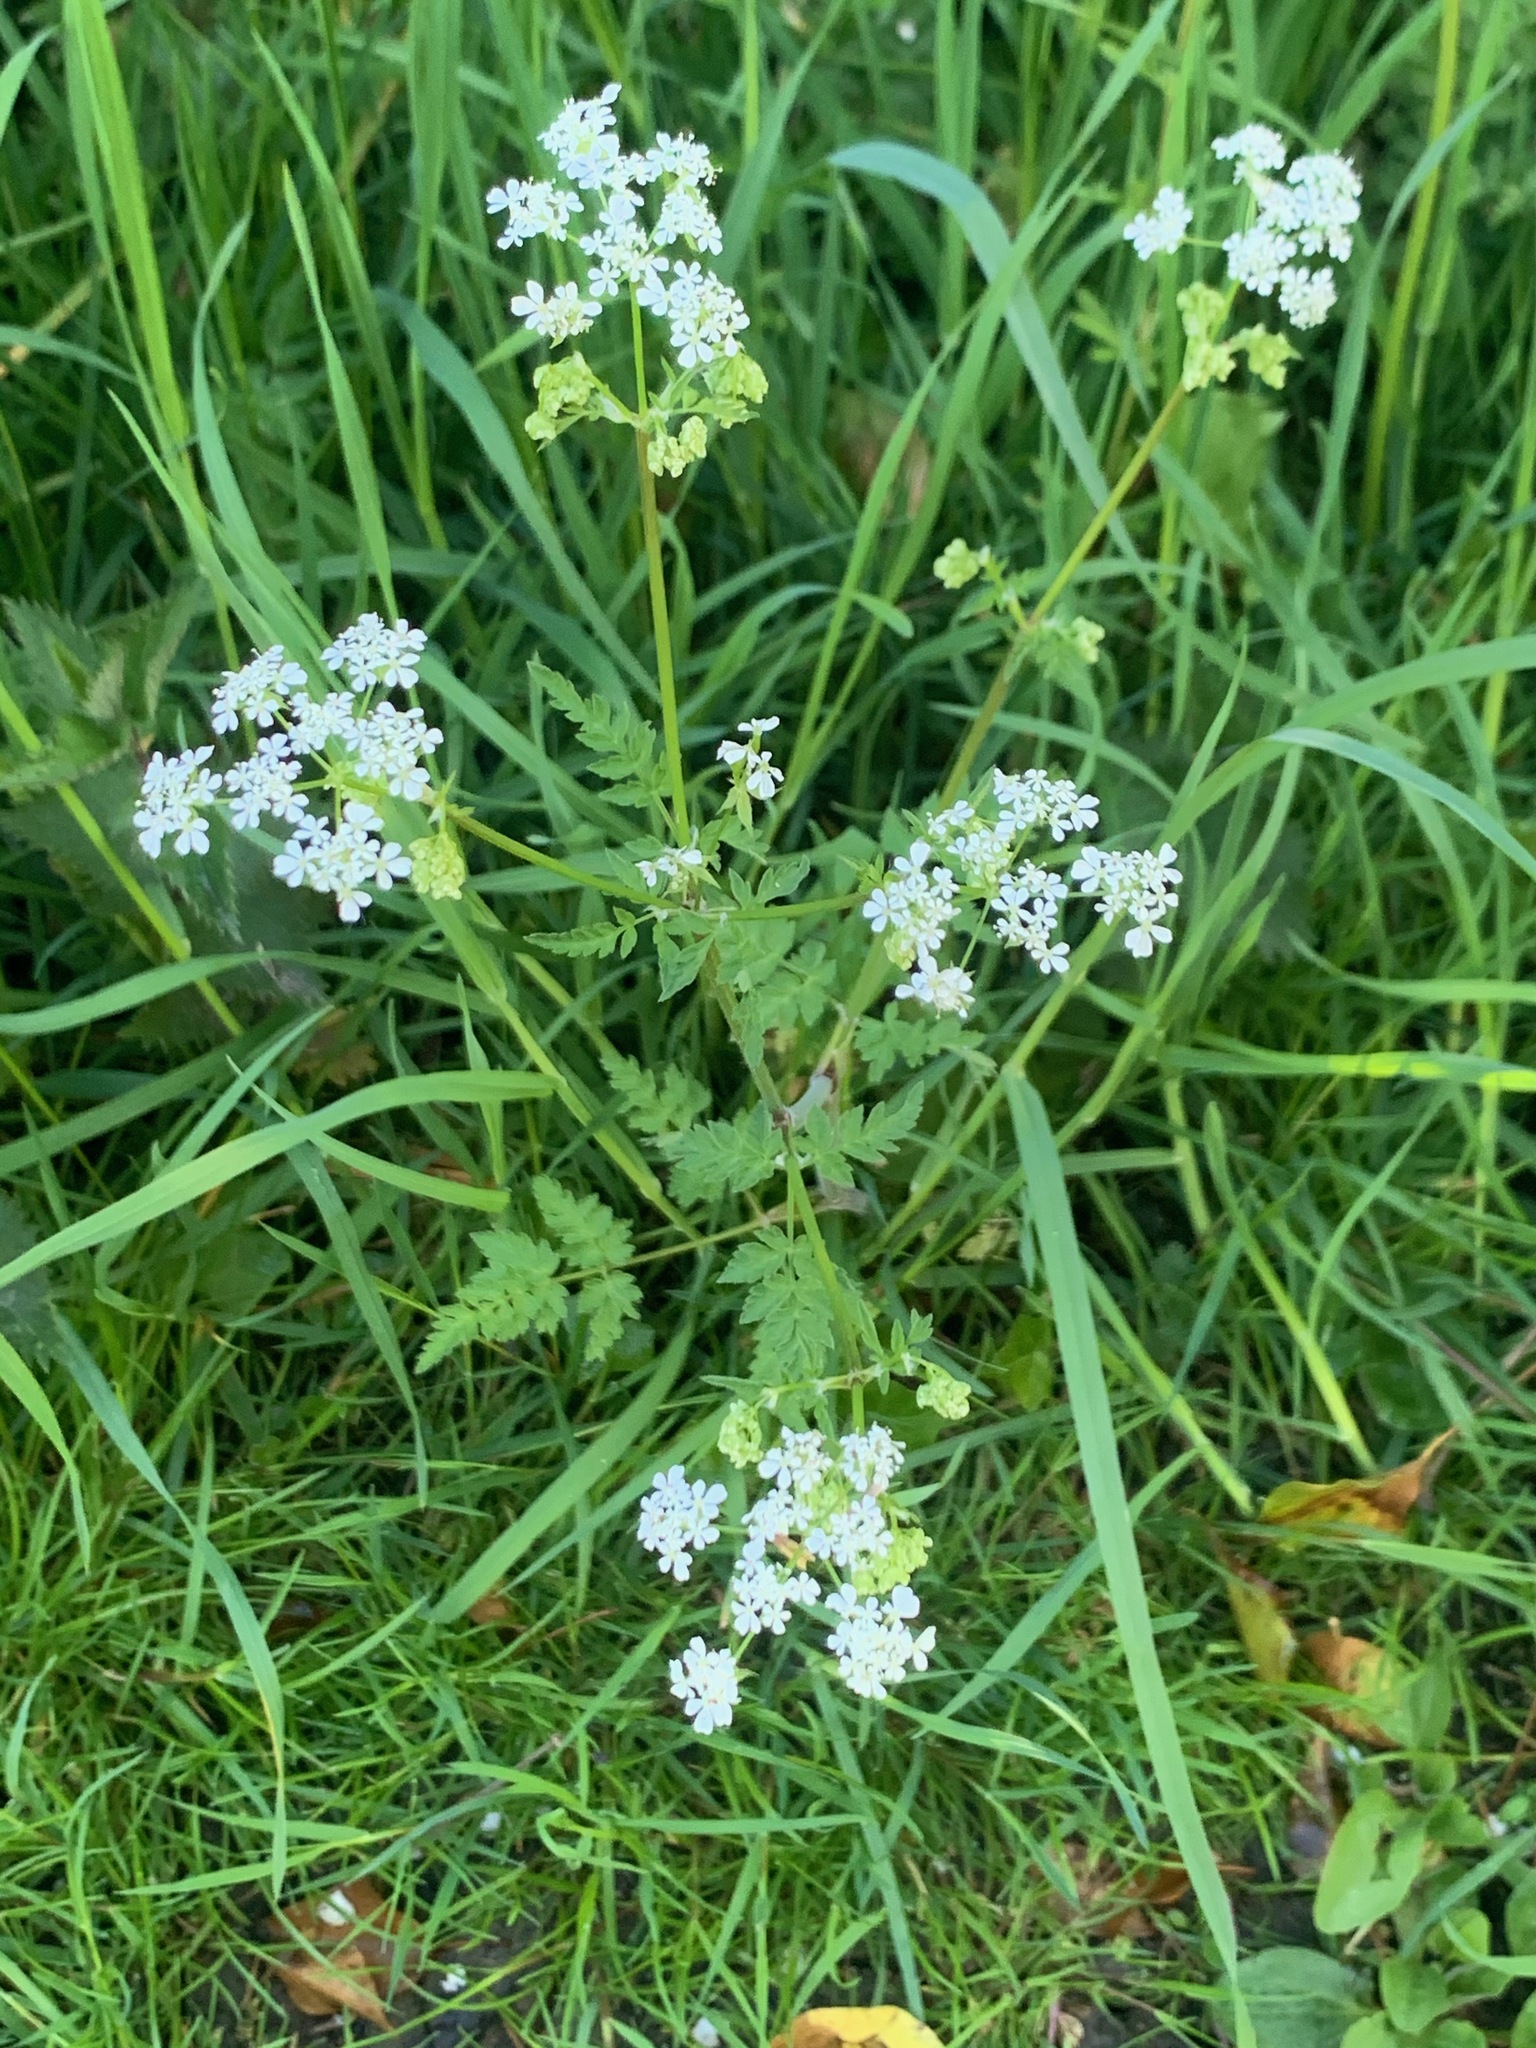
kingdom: Plantae
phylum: Tracheophyta
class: Magnoliopsida
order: Apiales
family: Apiaceae
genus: Anthriscus
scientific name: Anthriscus sylvestris
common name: Cow parsley
